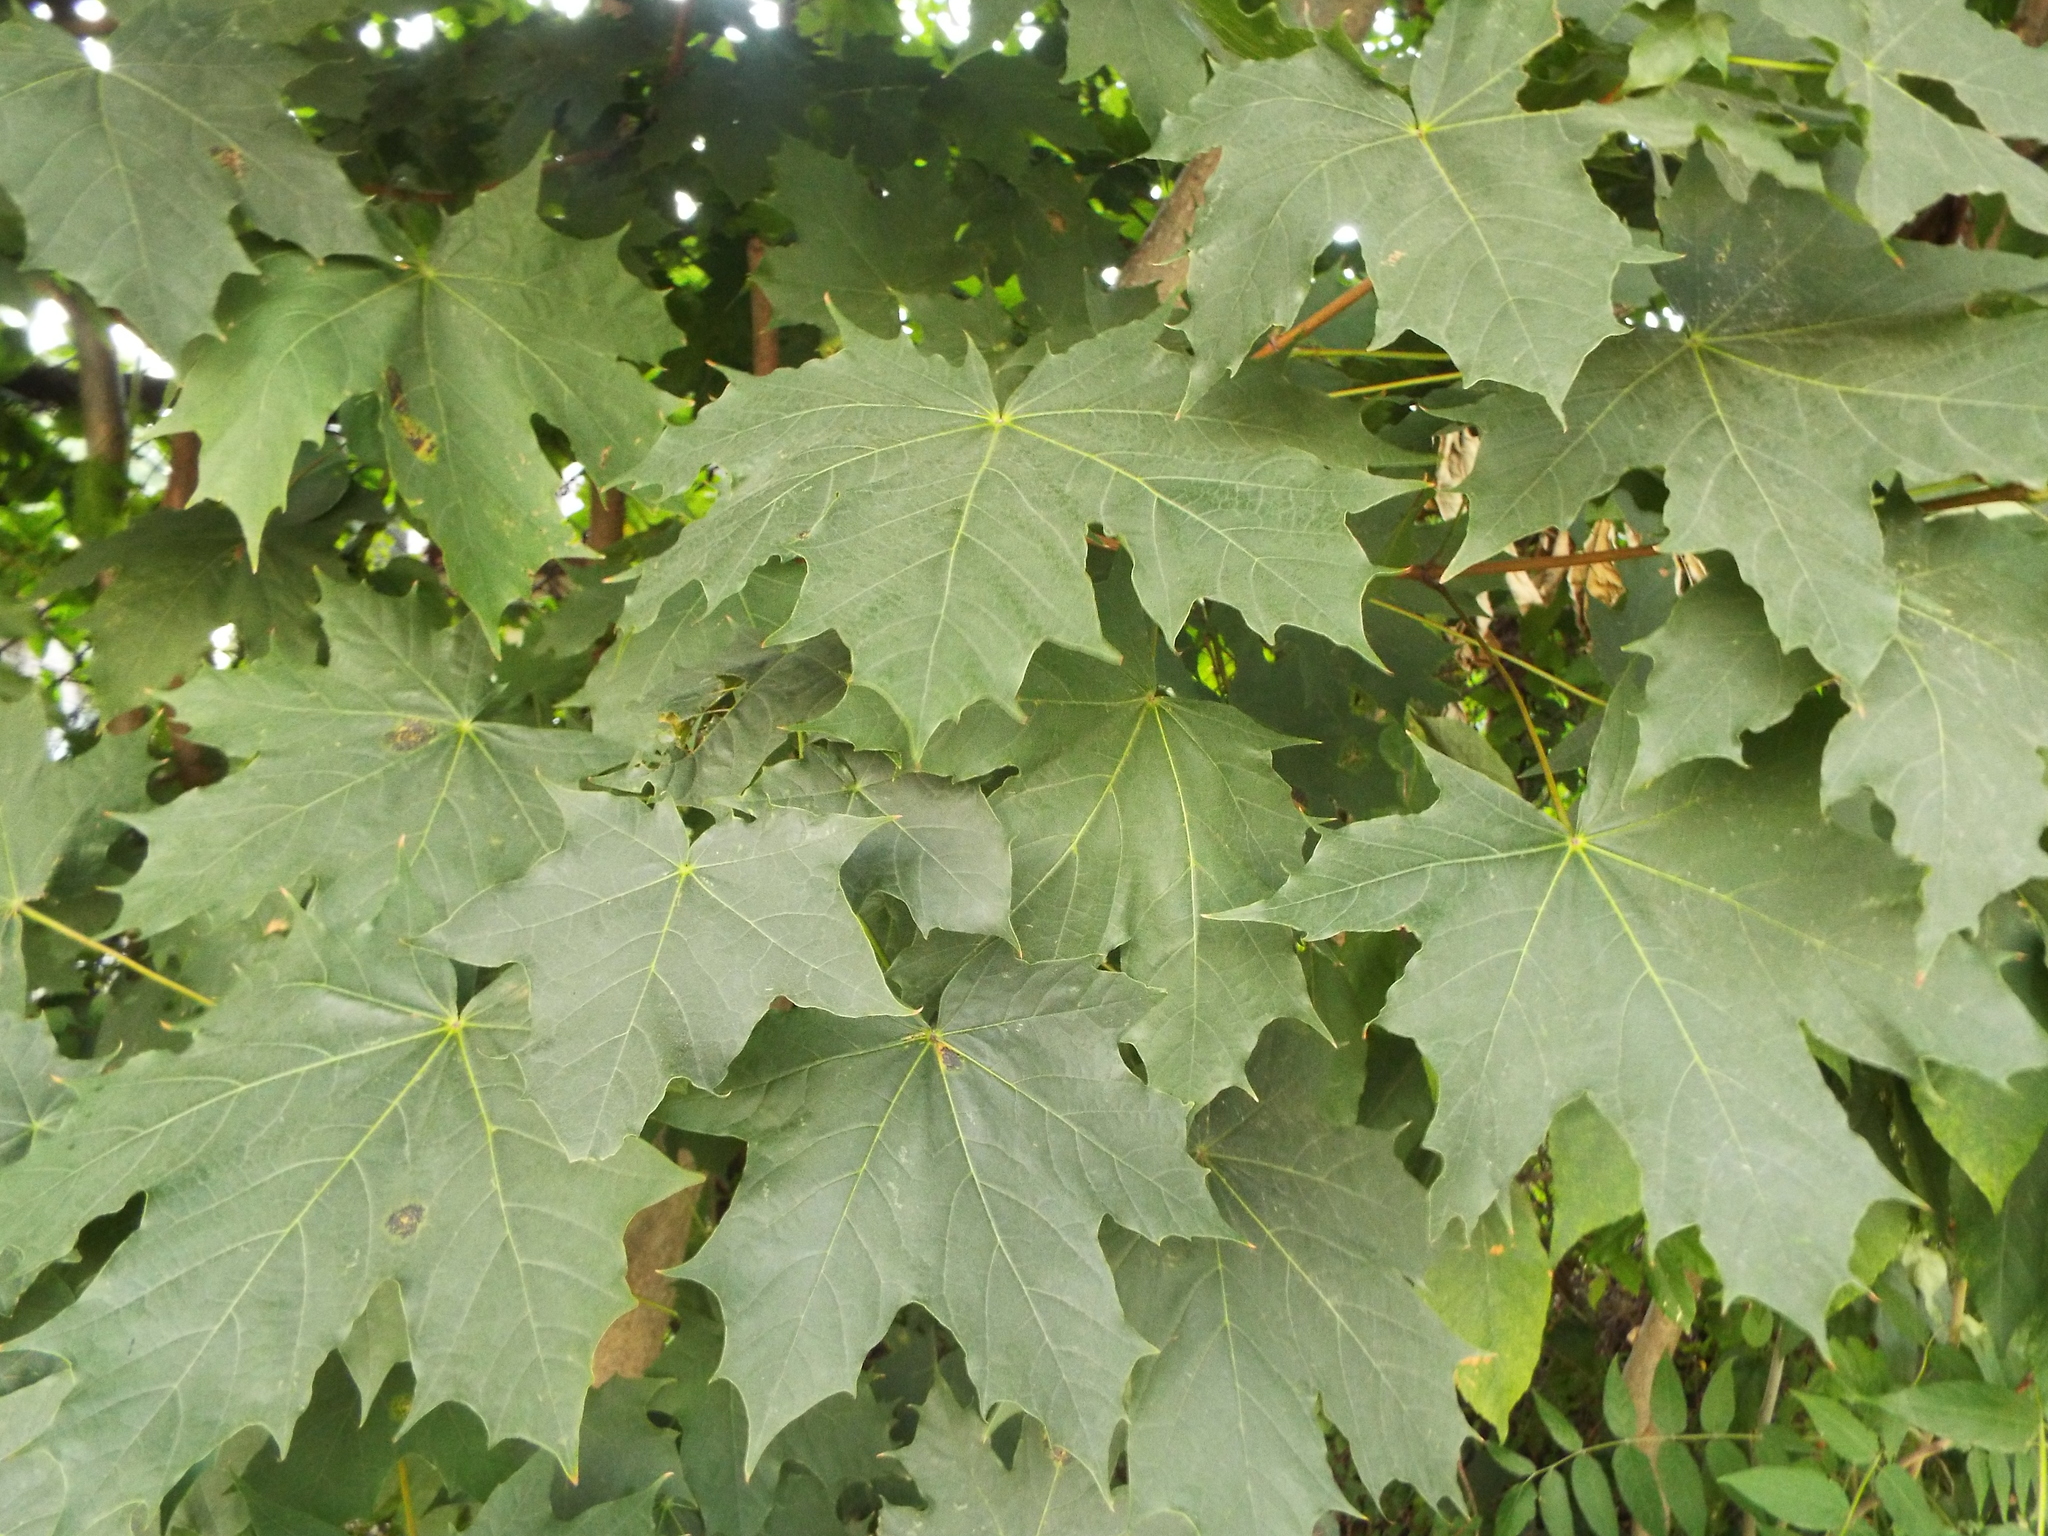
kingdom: Plantae
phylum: Tracheophyta
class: Magnoliopsida
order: Sapindales
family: Sapindaceae
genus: Acer
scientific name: Acer platanoides
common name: Norway maple
